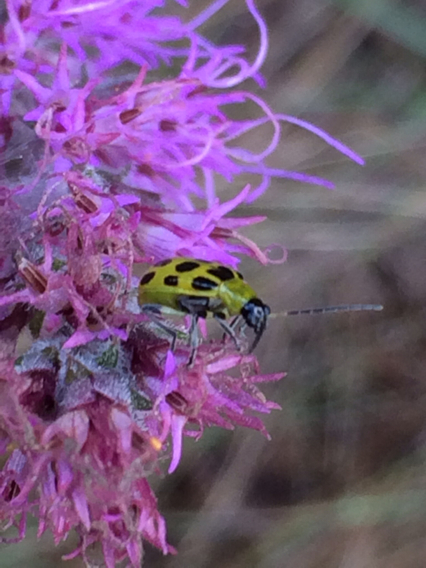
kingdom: Animalia
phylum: Arthropoda
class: Insecta
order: Coleoptera
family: Chrysomelidae
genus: Diabrotica
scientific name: Diabrotica undecimpunctata
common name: Spotted cucumber beetle
